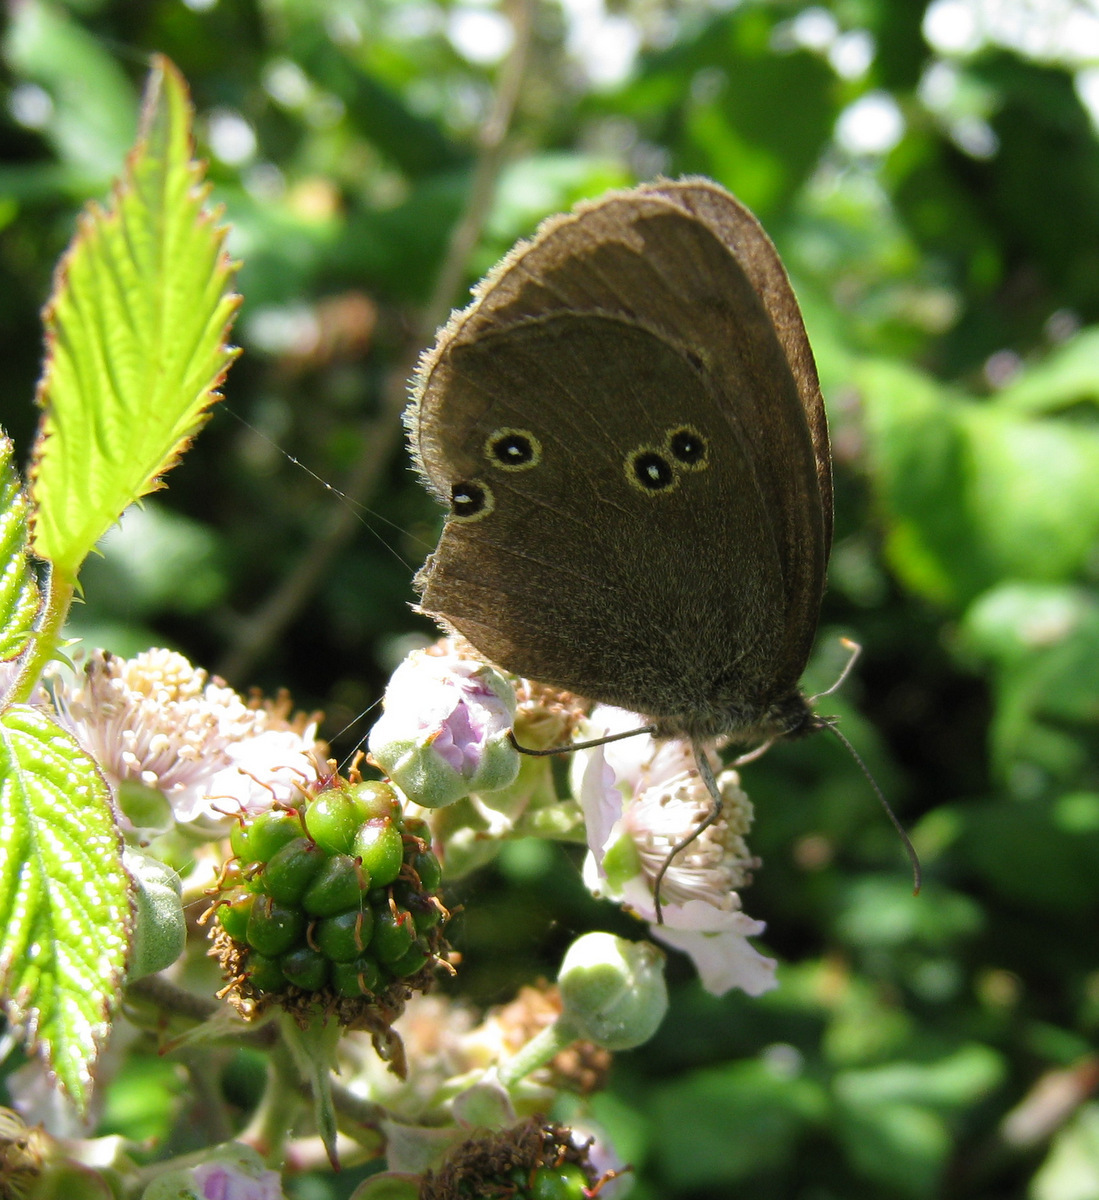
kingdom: Animalia
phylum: Arthropoda
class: Insecta
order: Lepidoptera
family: Nymphalidae
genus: Aphantopus
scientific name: Aphantopus hyperantus
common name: Ringlet
